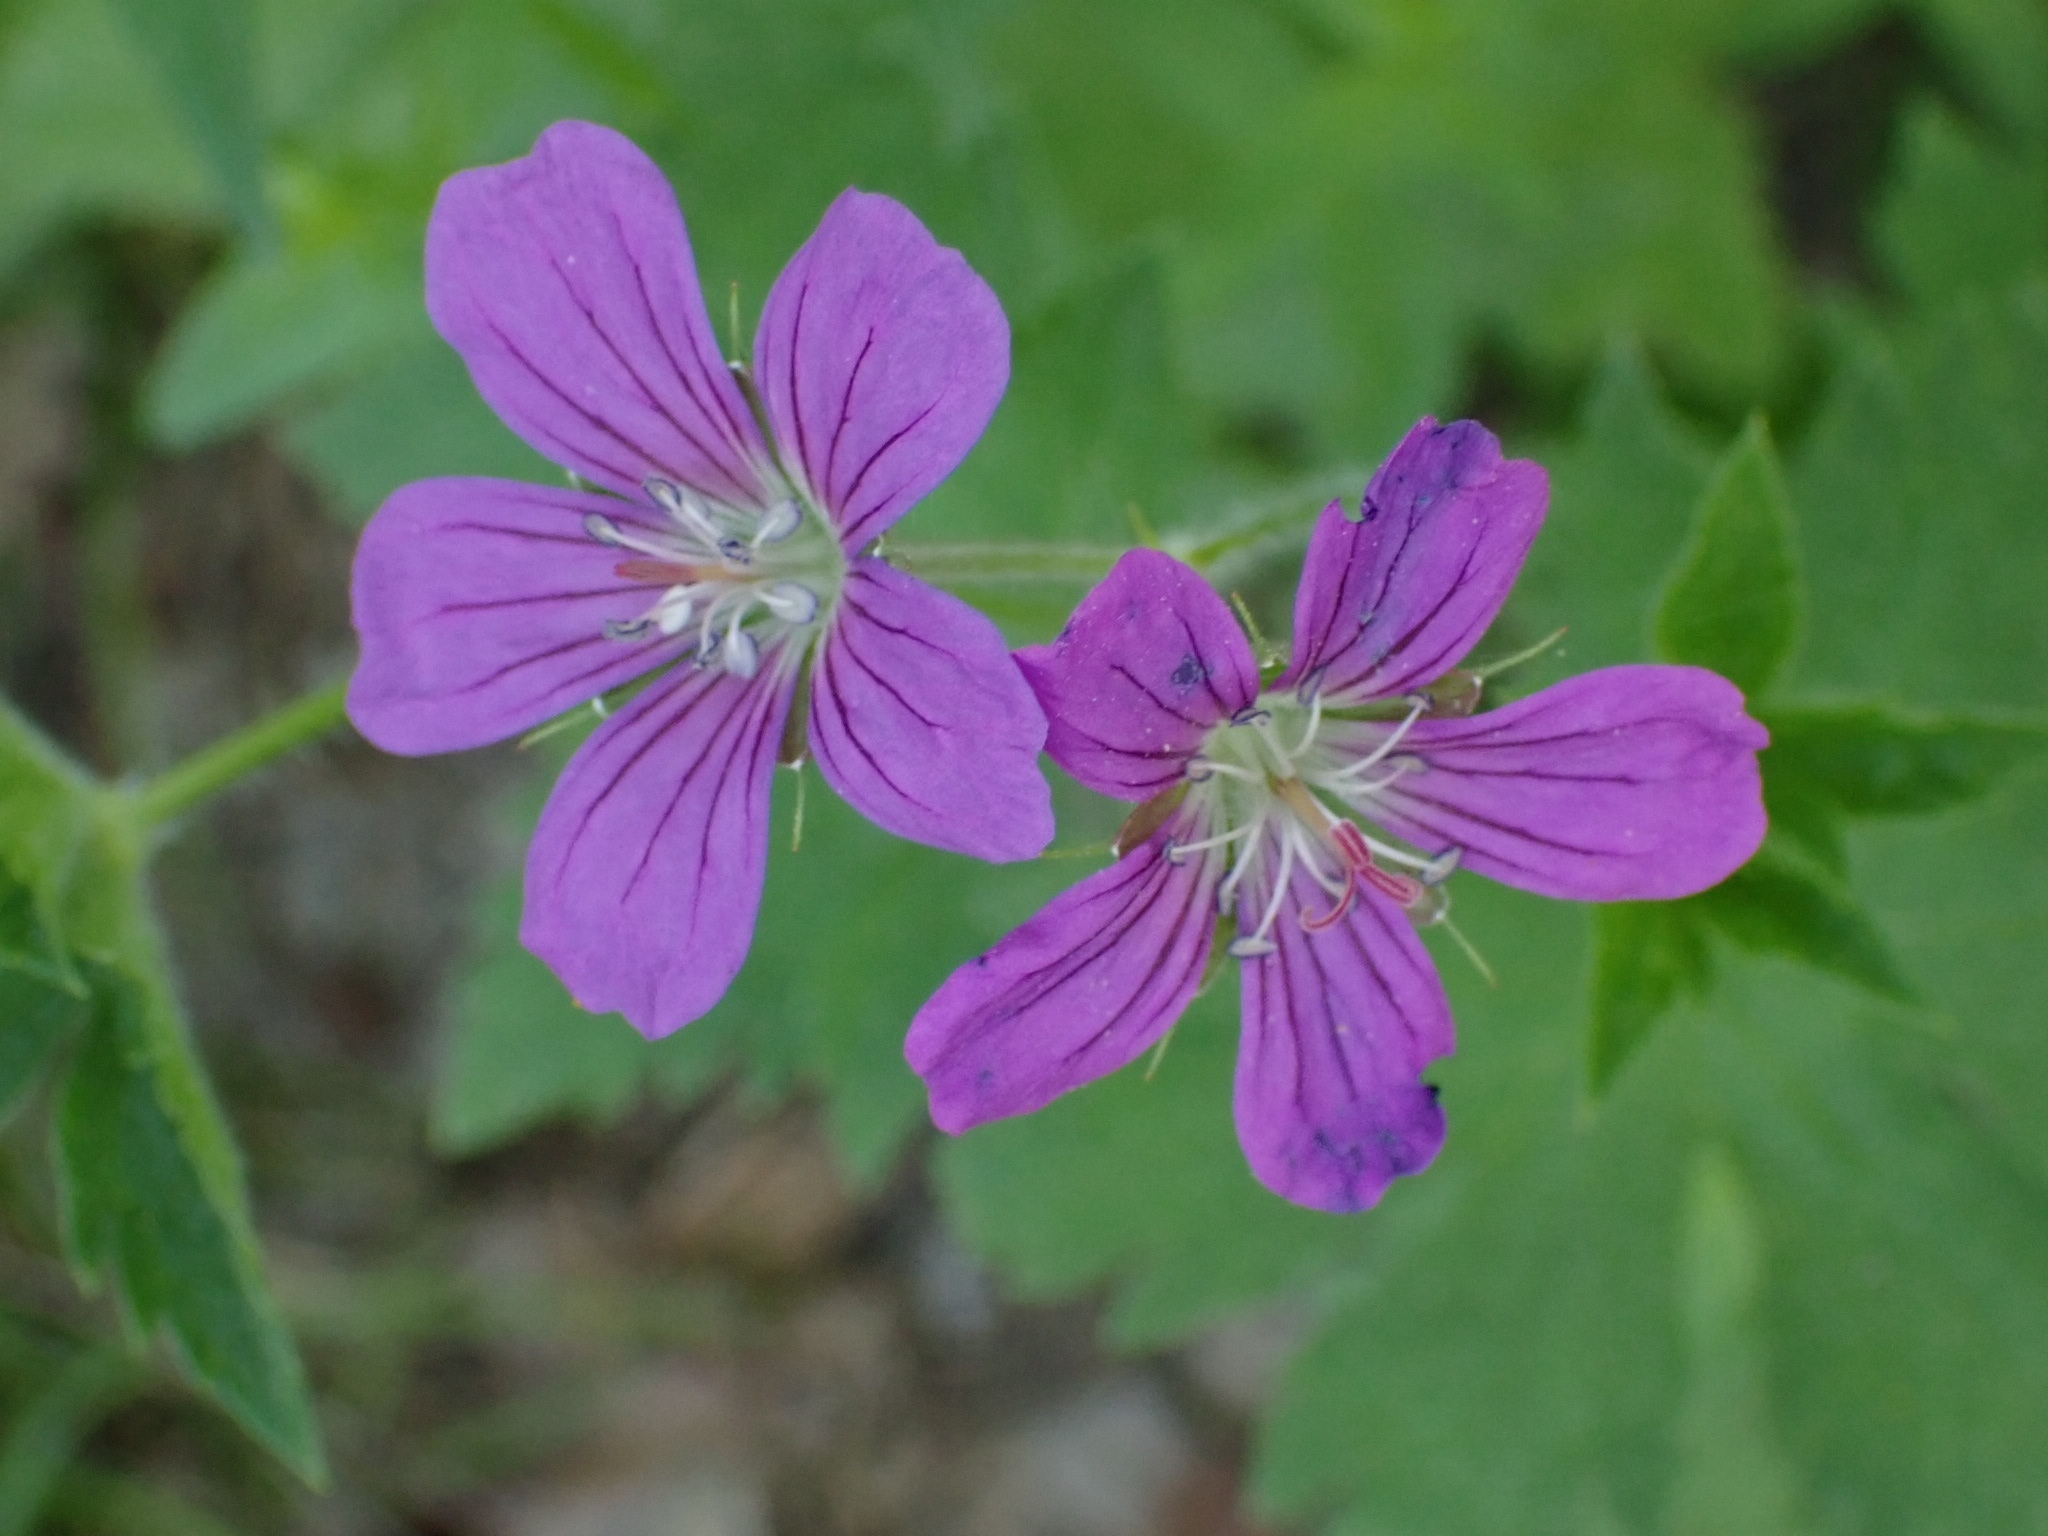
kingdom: Plantae
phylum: Tracheophyta
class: Magnoliopsida
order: Geraniales
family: Geraniaceae
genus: Geranium
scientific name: Geranium sylvaticum
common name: Wood crane's-bill
